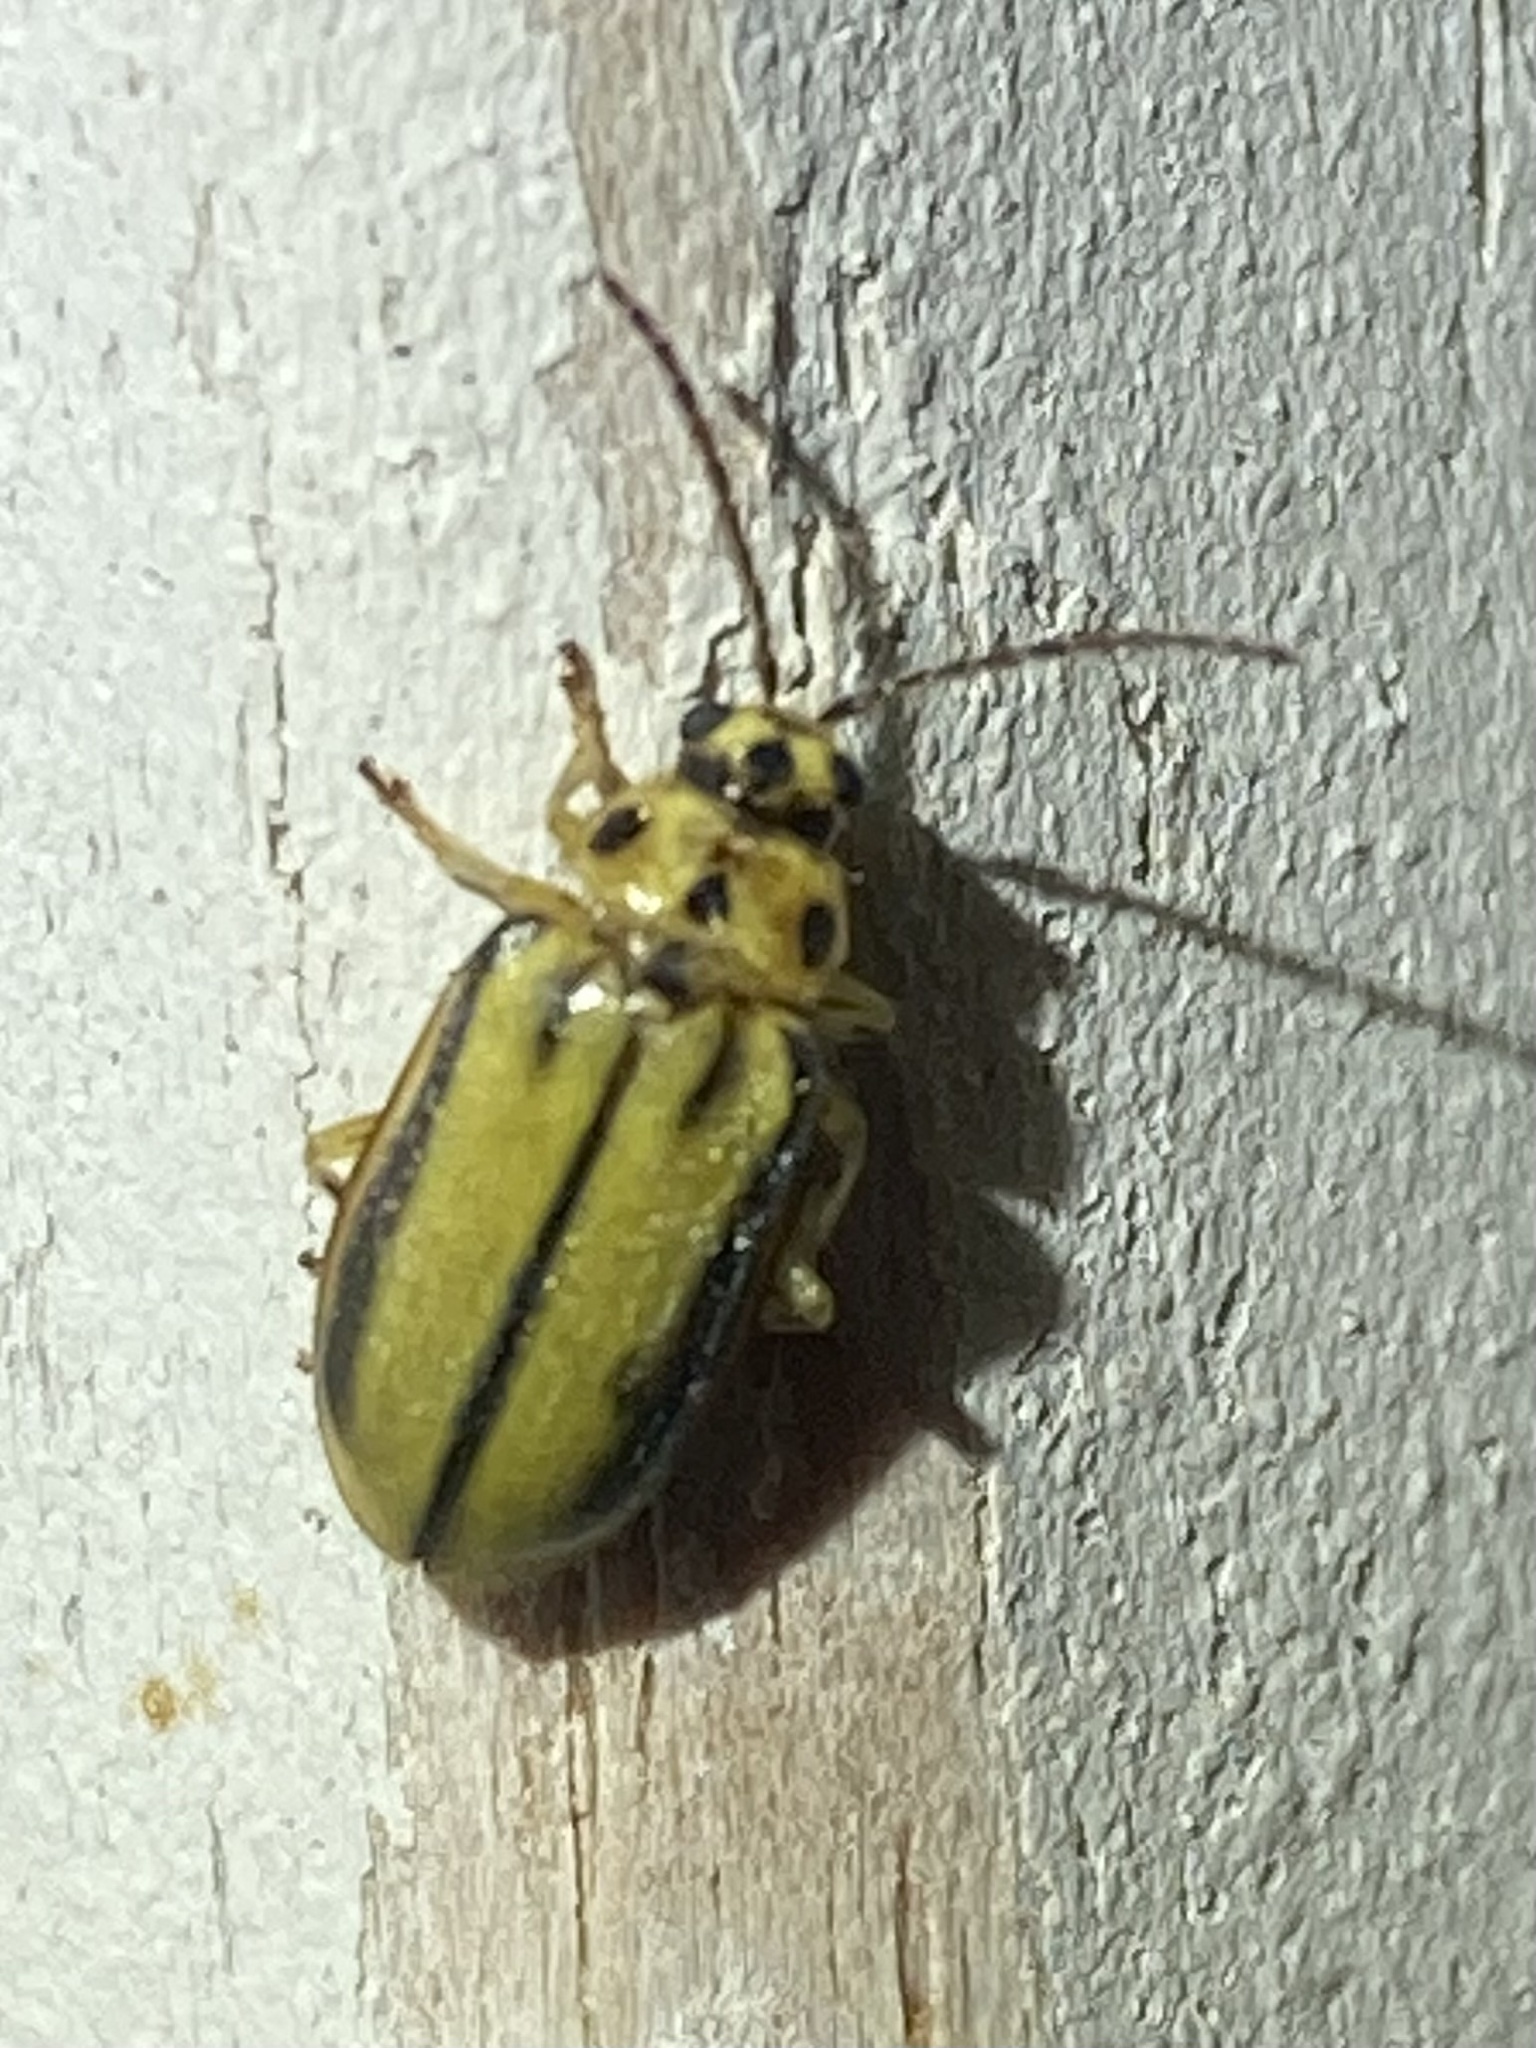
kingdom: Animalia
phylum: Arthropoda
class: Insecta
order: Coleoptera
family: Chrysomelidae
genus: Xanthogaleruca
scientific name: Xanthogaleruca luteola
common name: Elm leaf beetle
